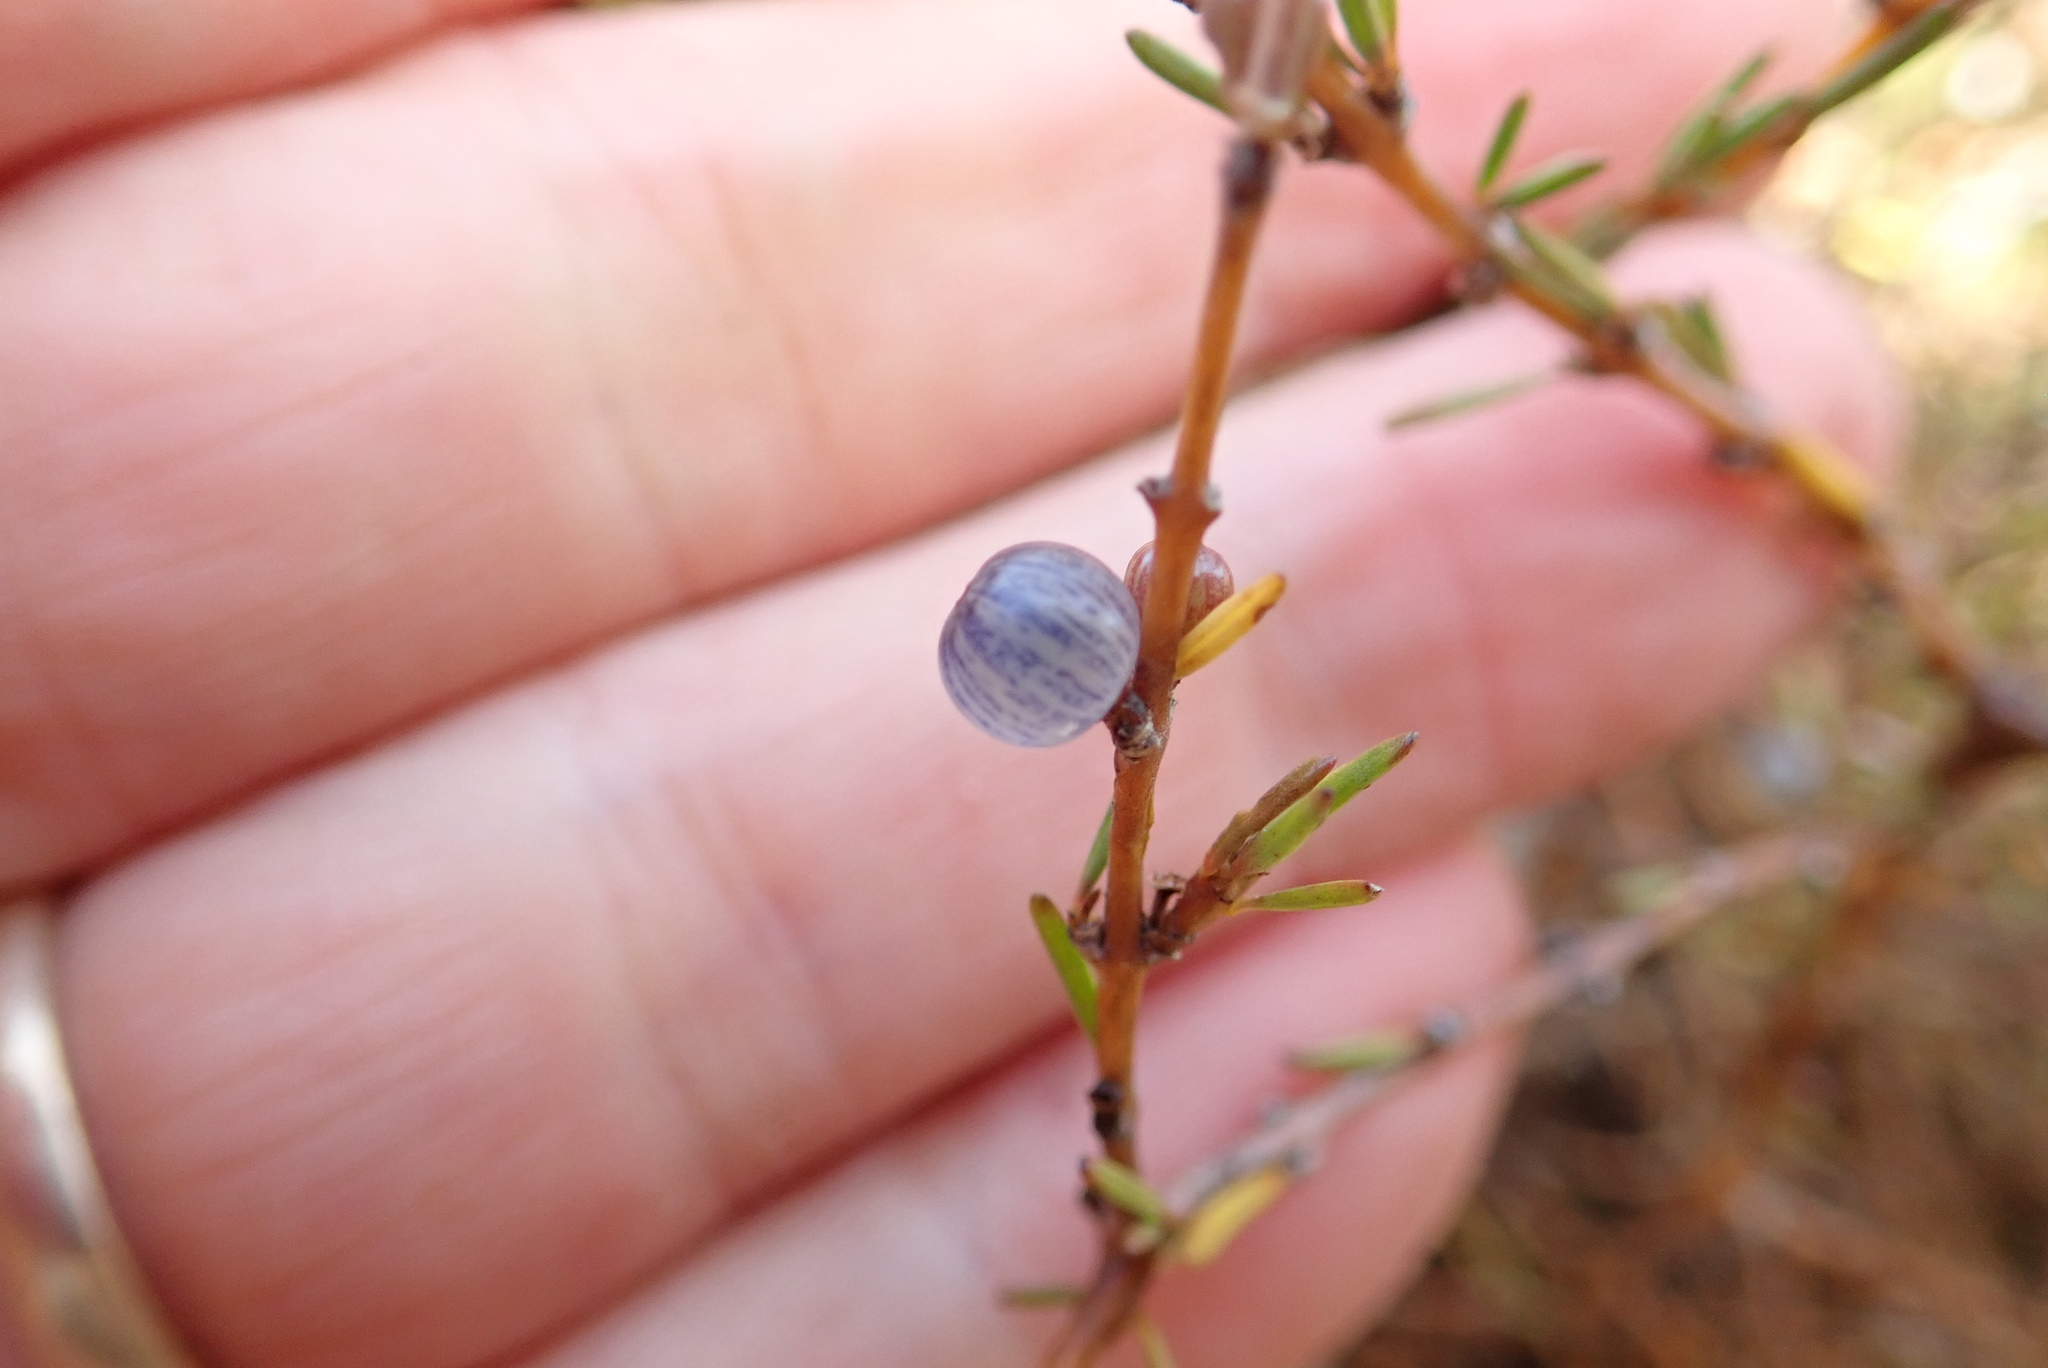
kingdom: Plantae
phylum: Tracheophyta
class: Magnoliopsida
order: Gentianales
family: Rubiaceae
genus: Coprosma
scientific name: Coprosma acerosa
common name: Sand coprosma
